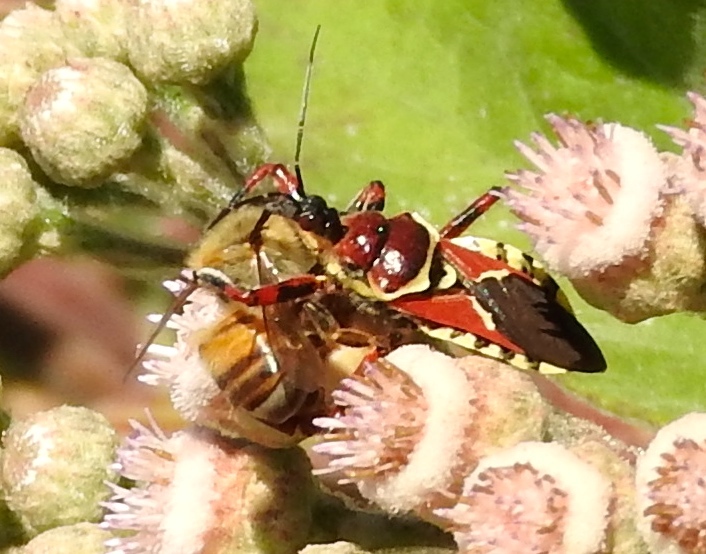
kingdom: Animalia
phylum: Arthropoda
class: Insecta
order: Hemiptera
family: Reduviidae
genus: Apiomerus
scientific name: Apiomerus flaviventris
